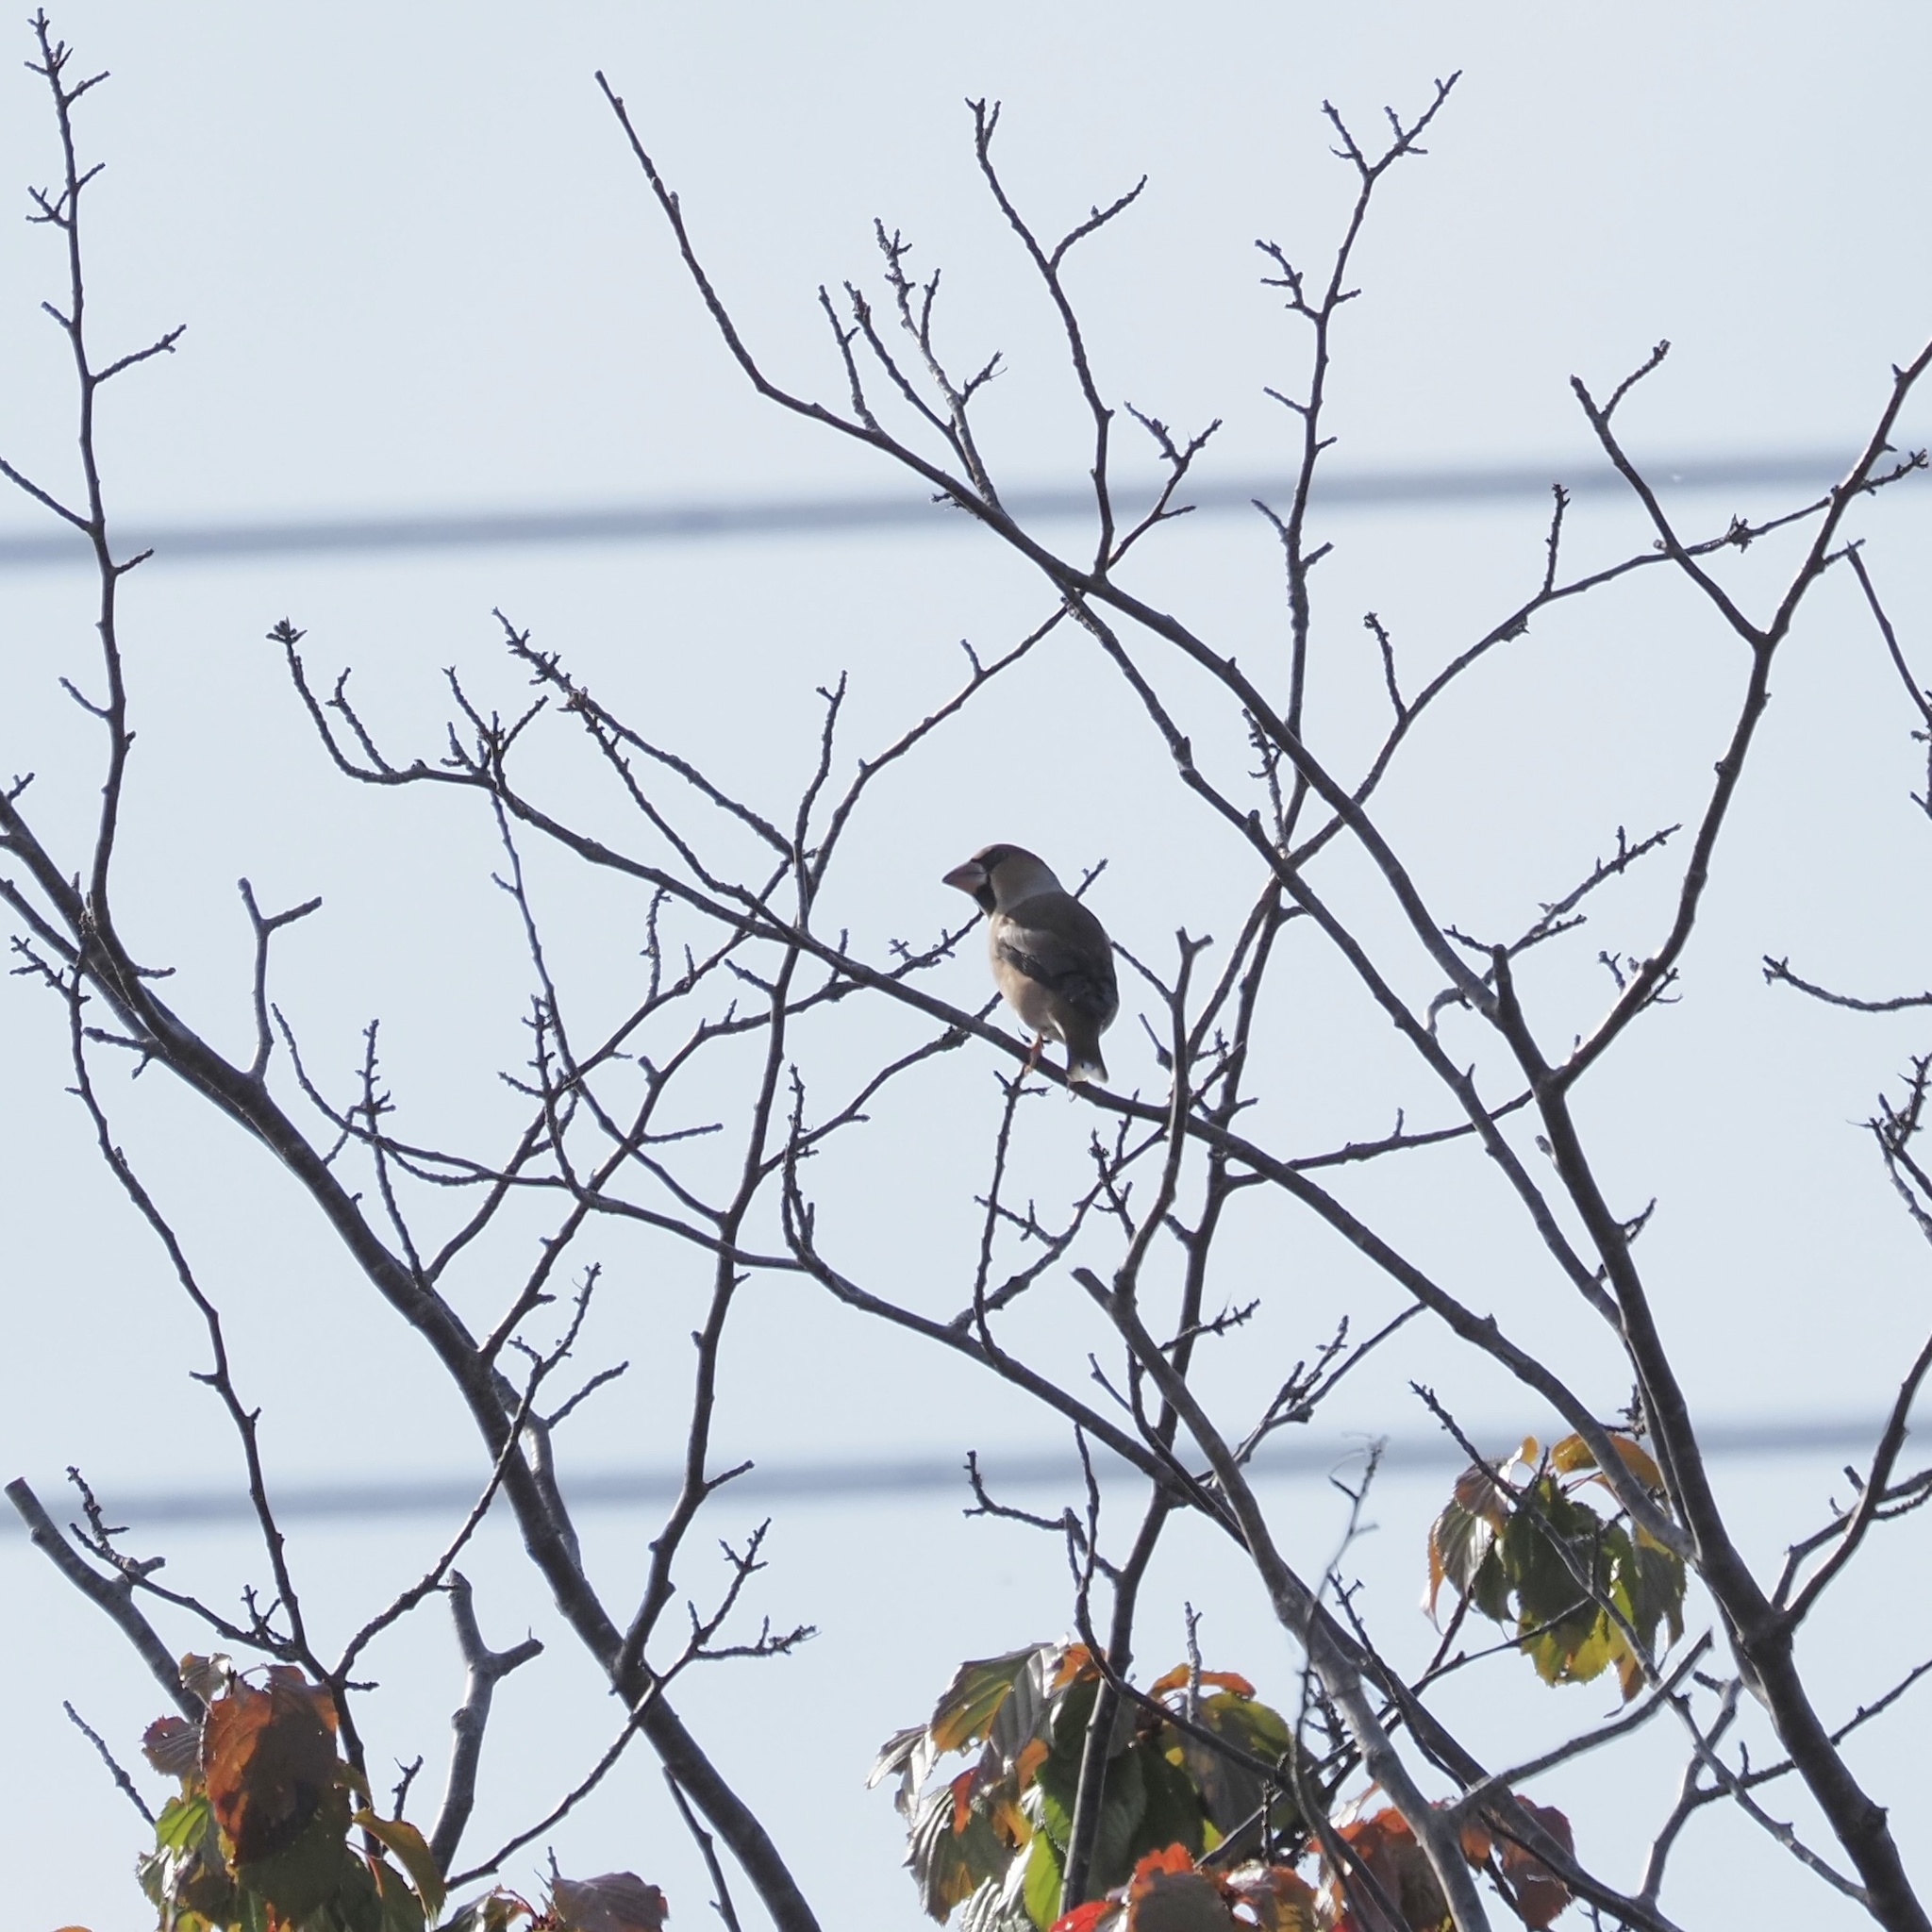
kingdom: Animalia
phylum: Chordata
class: Aves
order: Passeriformes
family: Fringillidae
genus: Coccothraustes
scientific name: Coccothraustes coccothraustes
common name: Hawfinch
